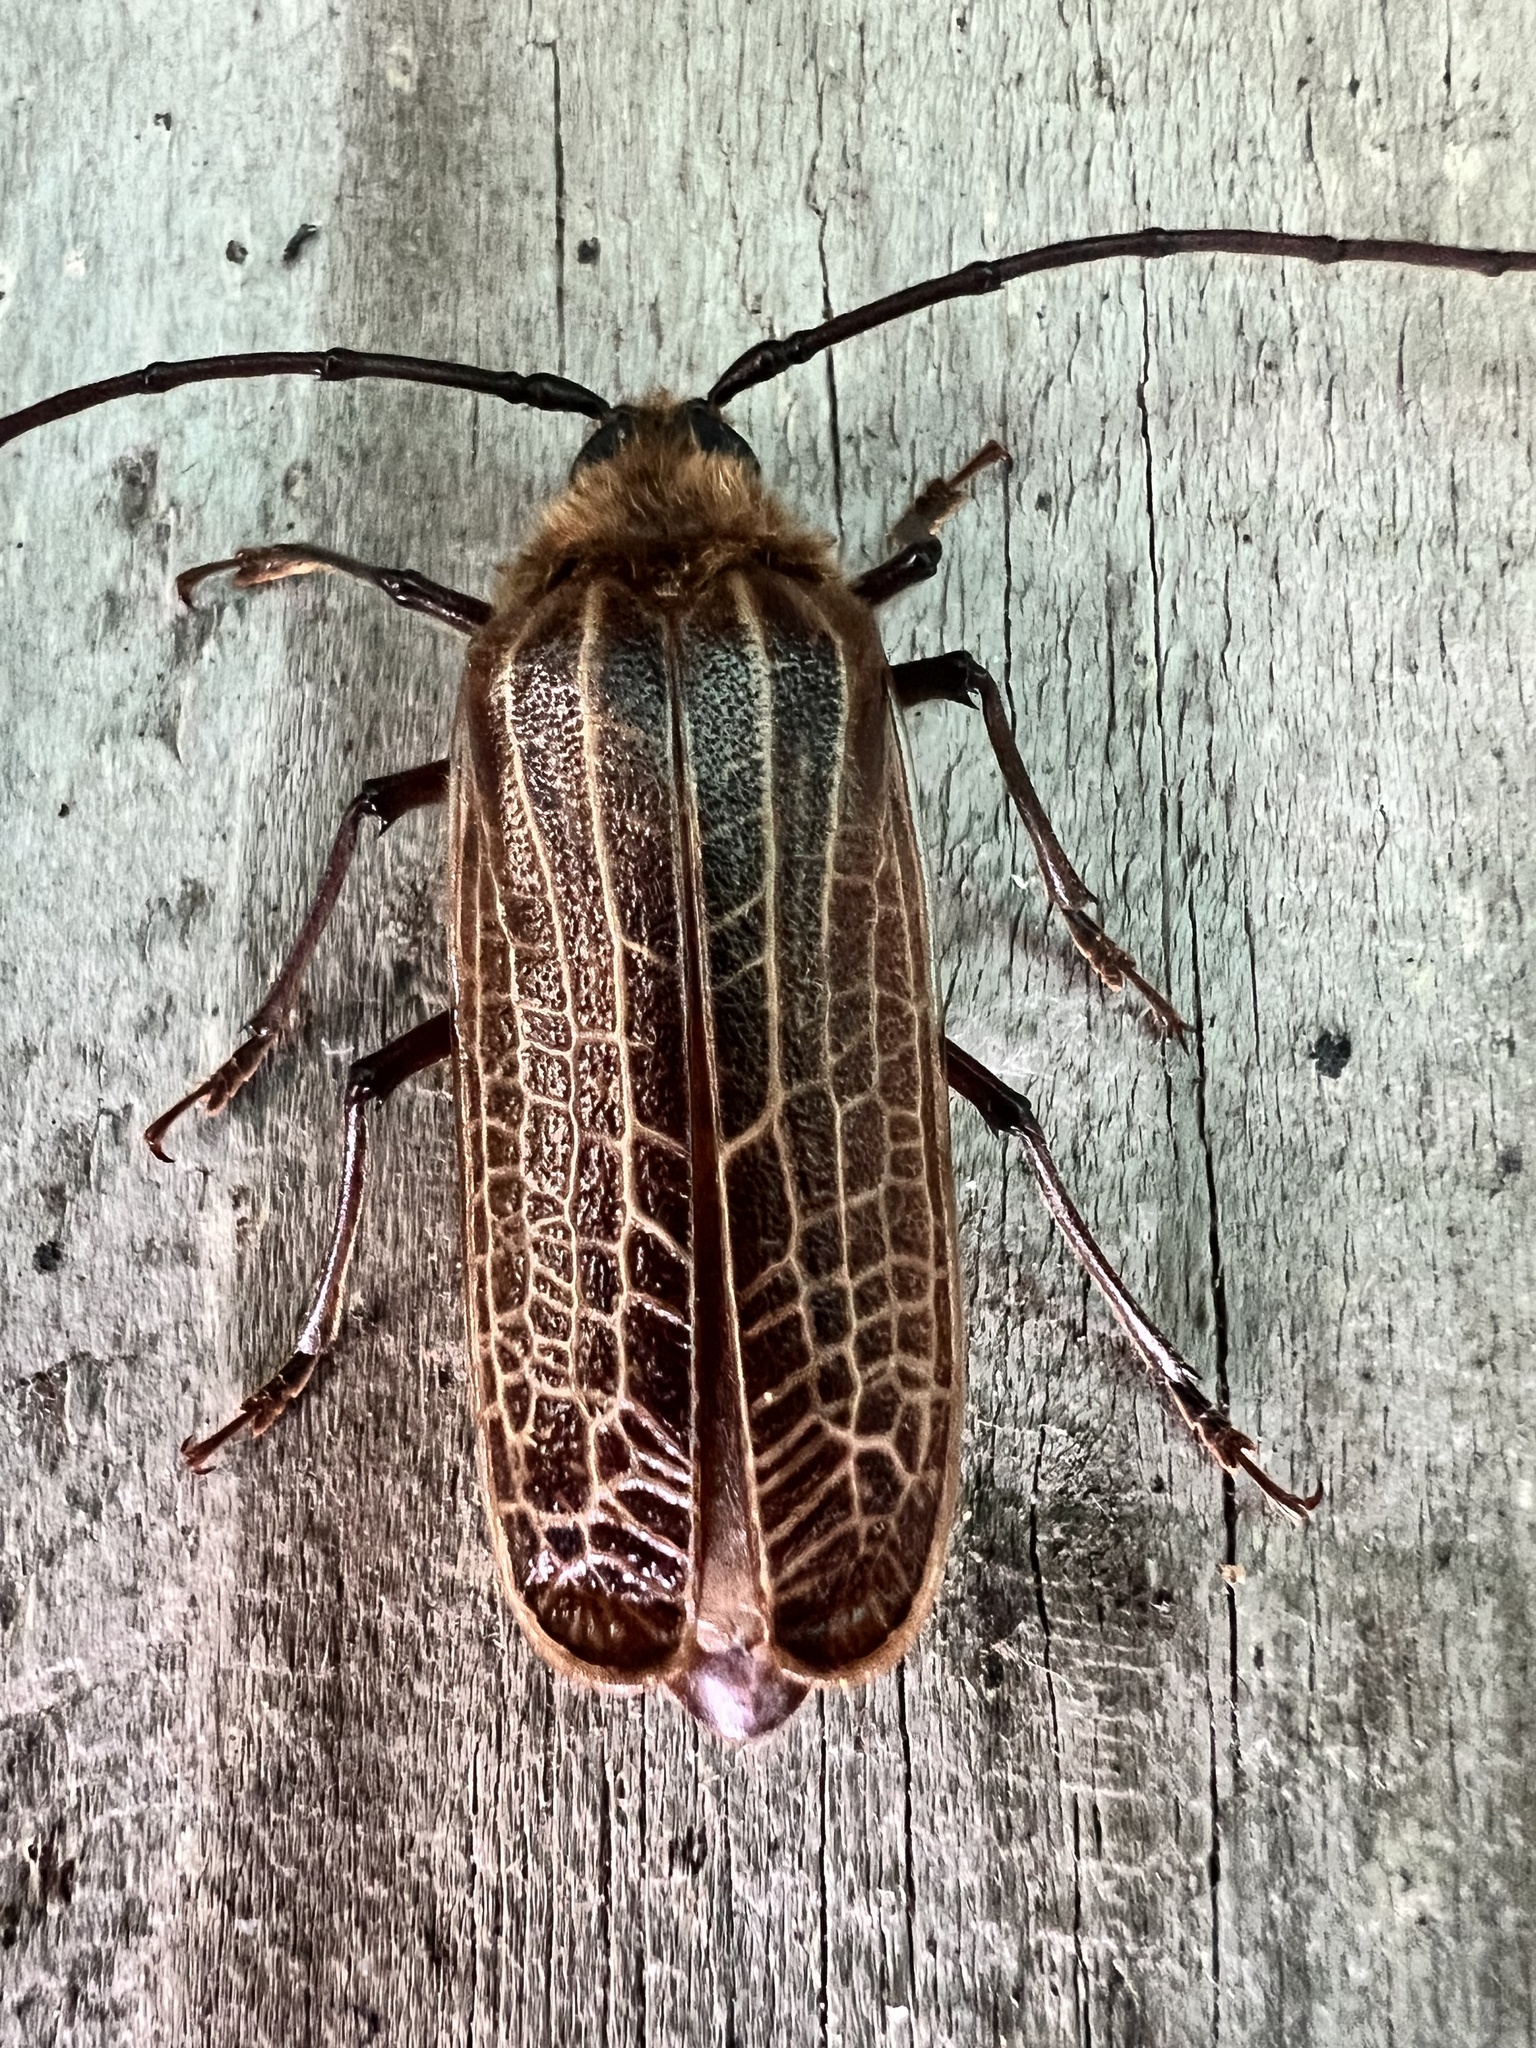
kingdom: Animalia
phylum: Arthropoda
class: Insecta
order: Coleoptera
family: Cerambycidae
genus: Prionoplus
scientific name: Prionoplus reticularis
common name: Huhu beetle
